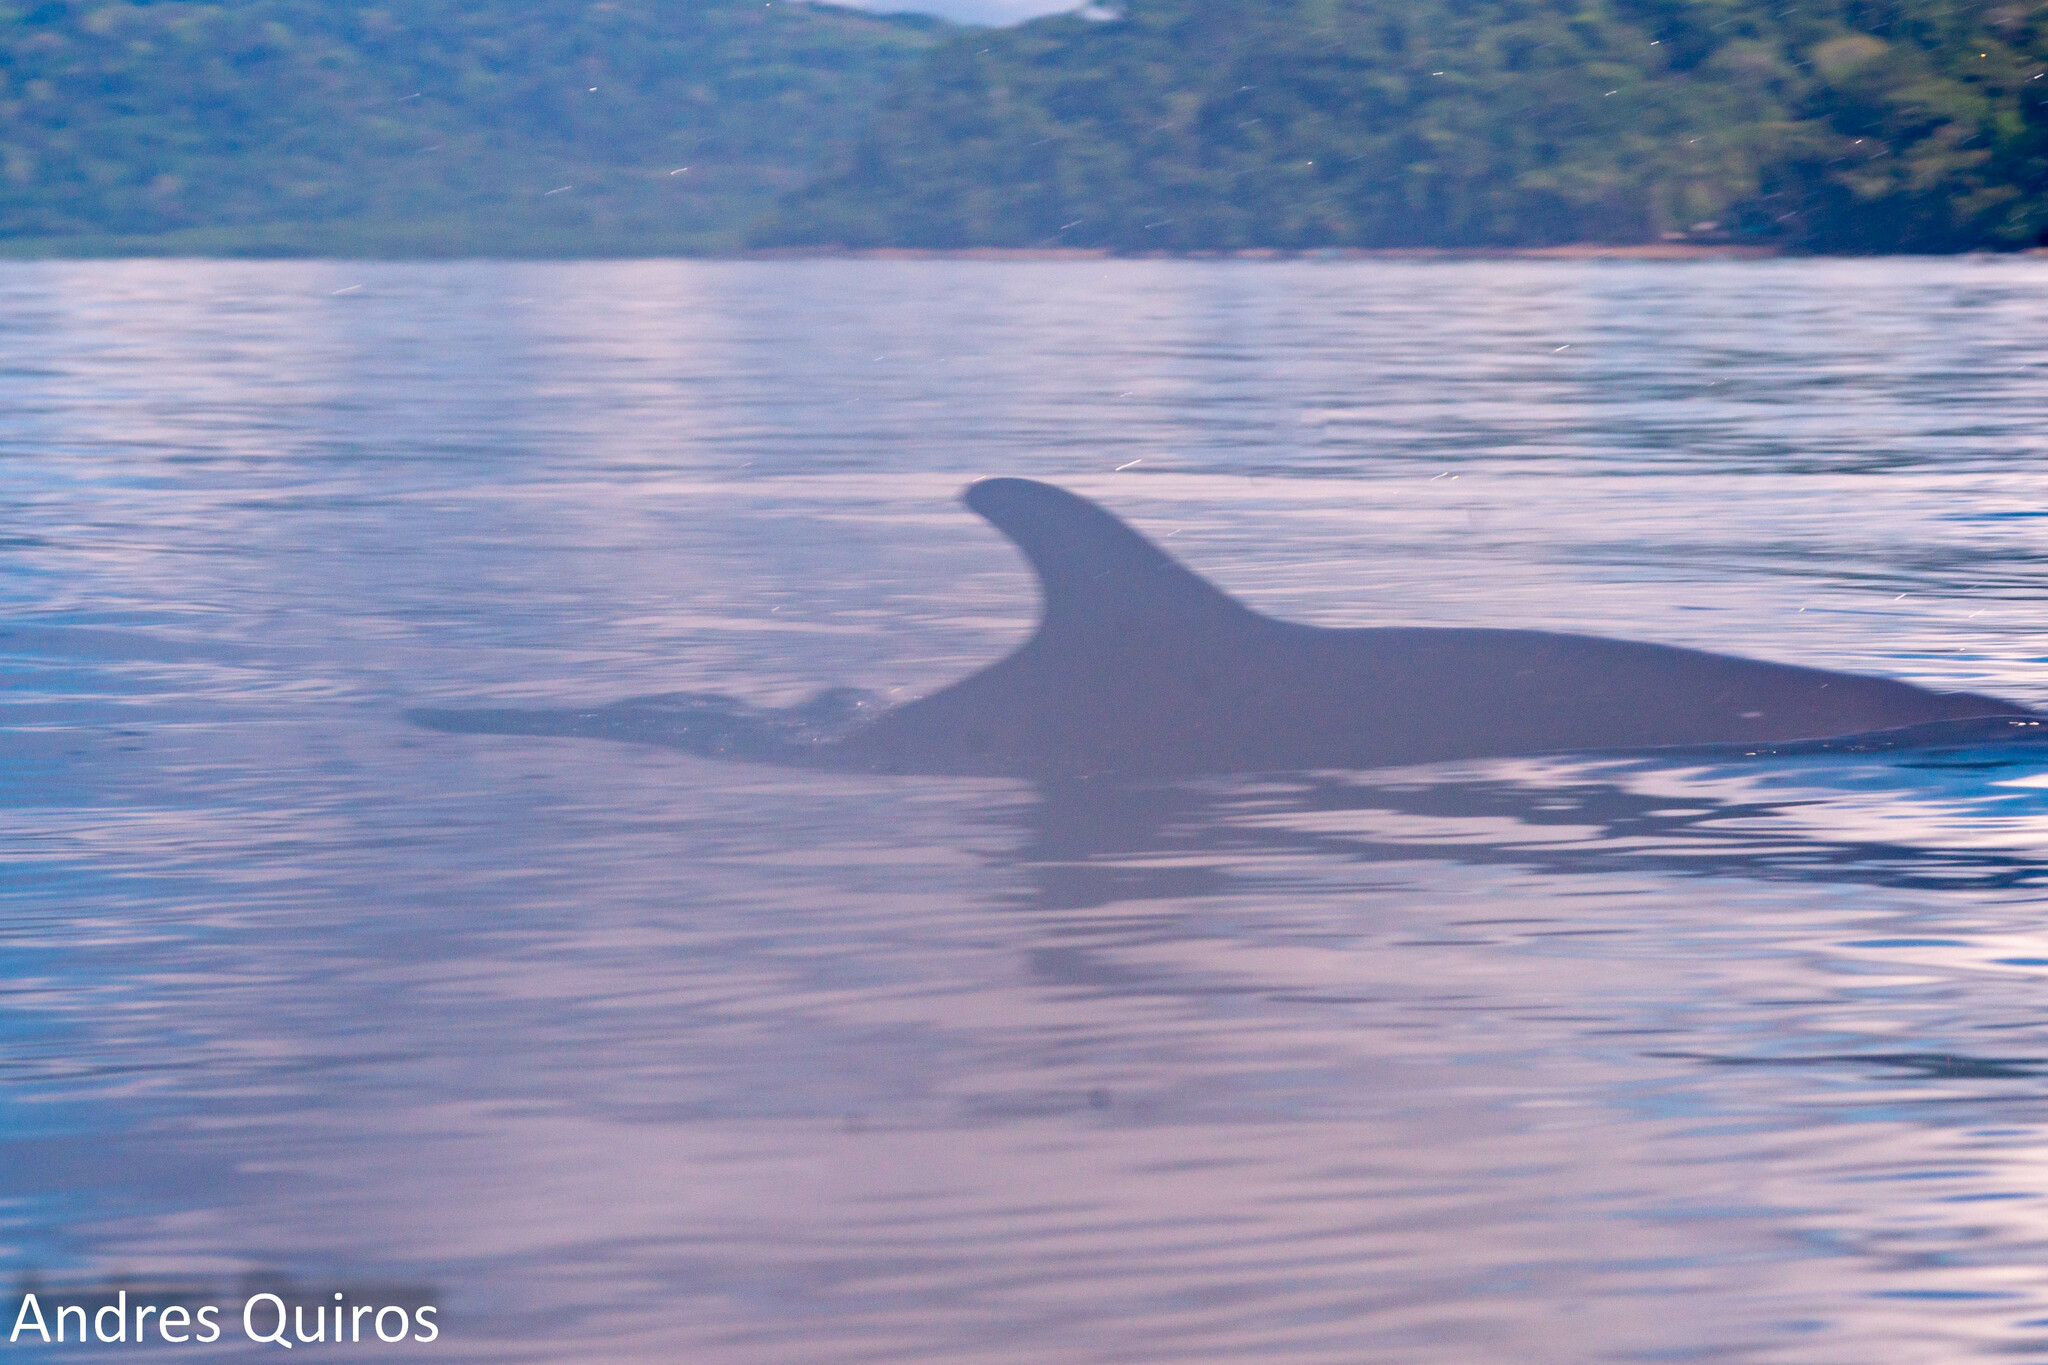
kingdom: Animalia
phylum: Chordata
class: Mammalia
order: Cetacea
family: Delphinidae
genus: Tursiops
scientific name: Tursiops truncatus
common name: Bottlenose dolphin
